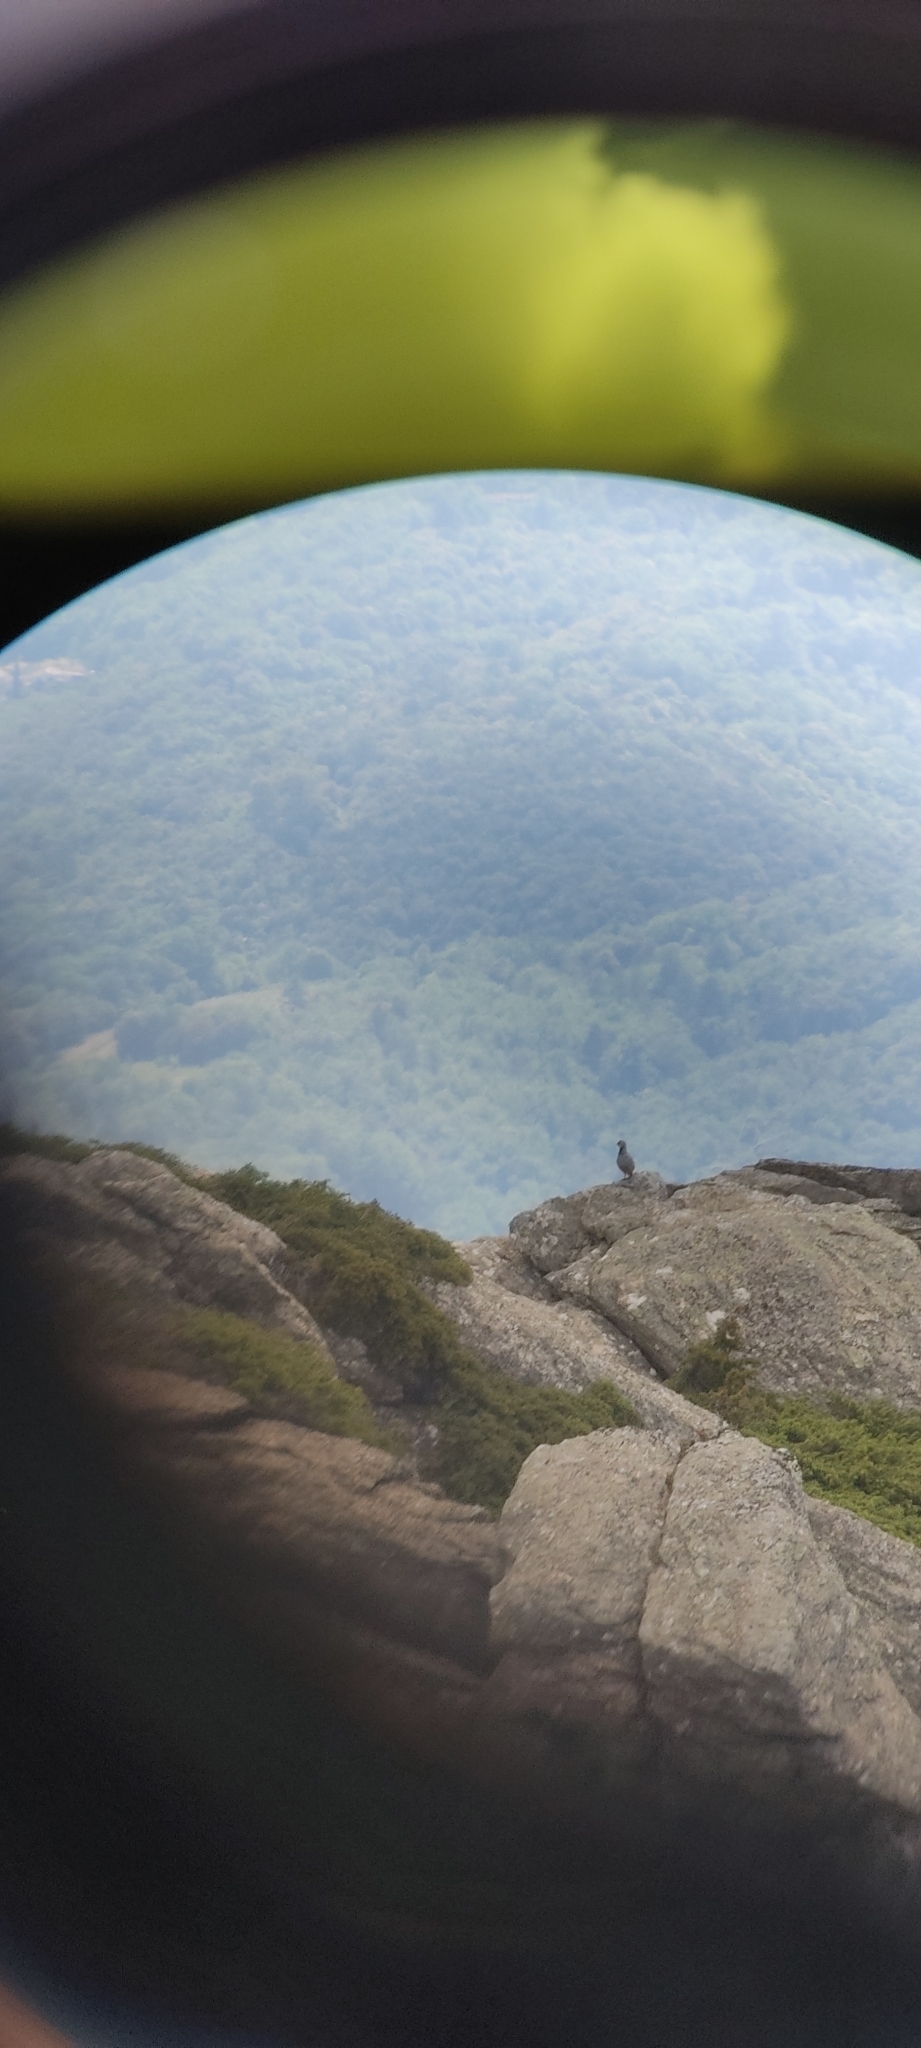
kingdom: Animalia
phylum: Chordata
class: Aves
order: Galliformes
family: Phasianidae
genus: Alectoris
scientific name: Alectoris rufa
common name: Red-legged partridge
